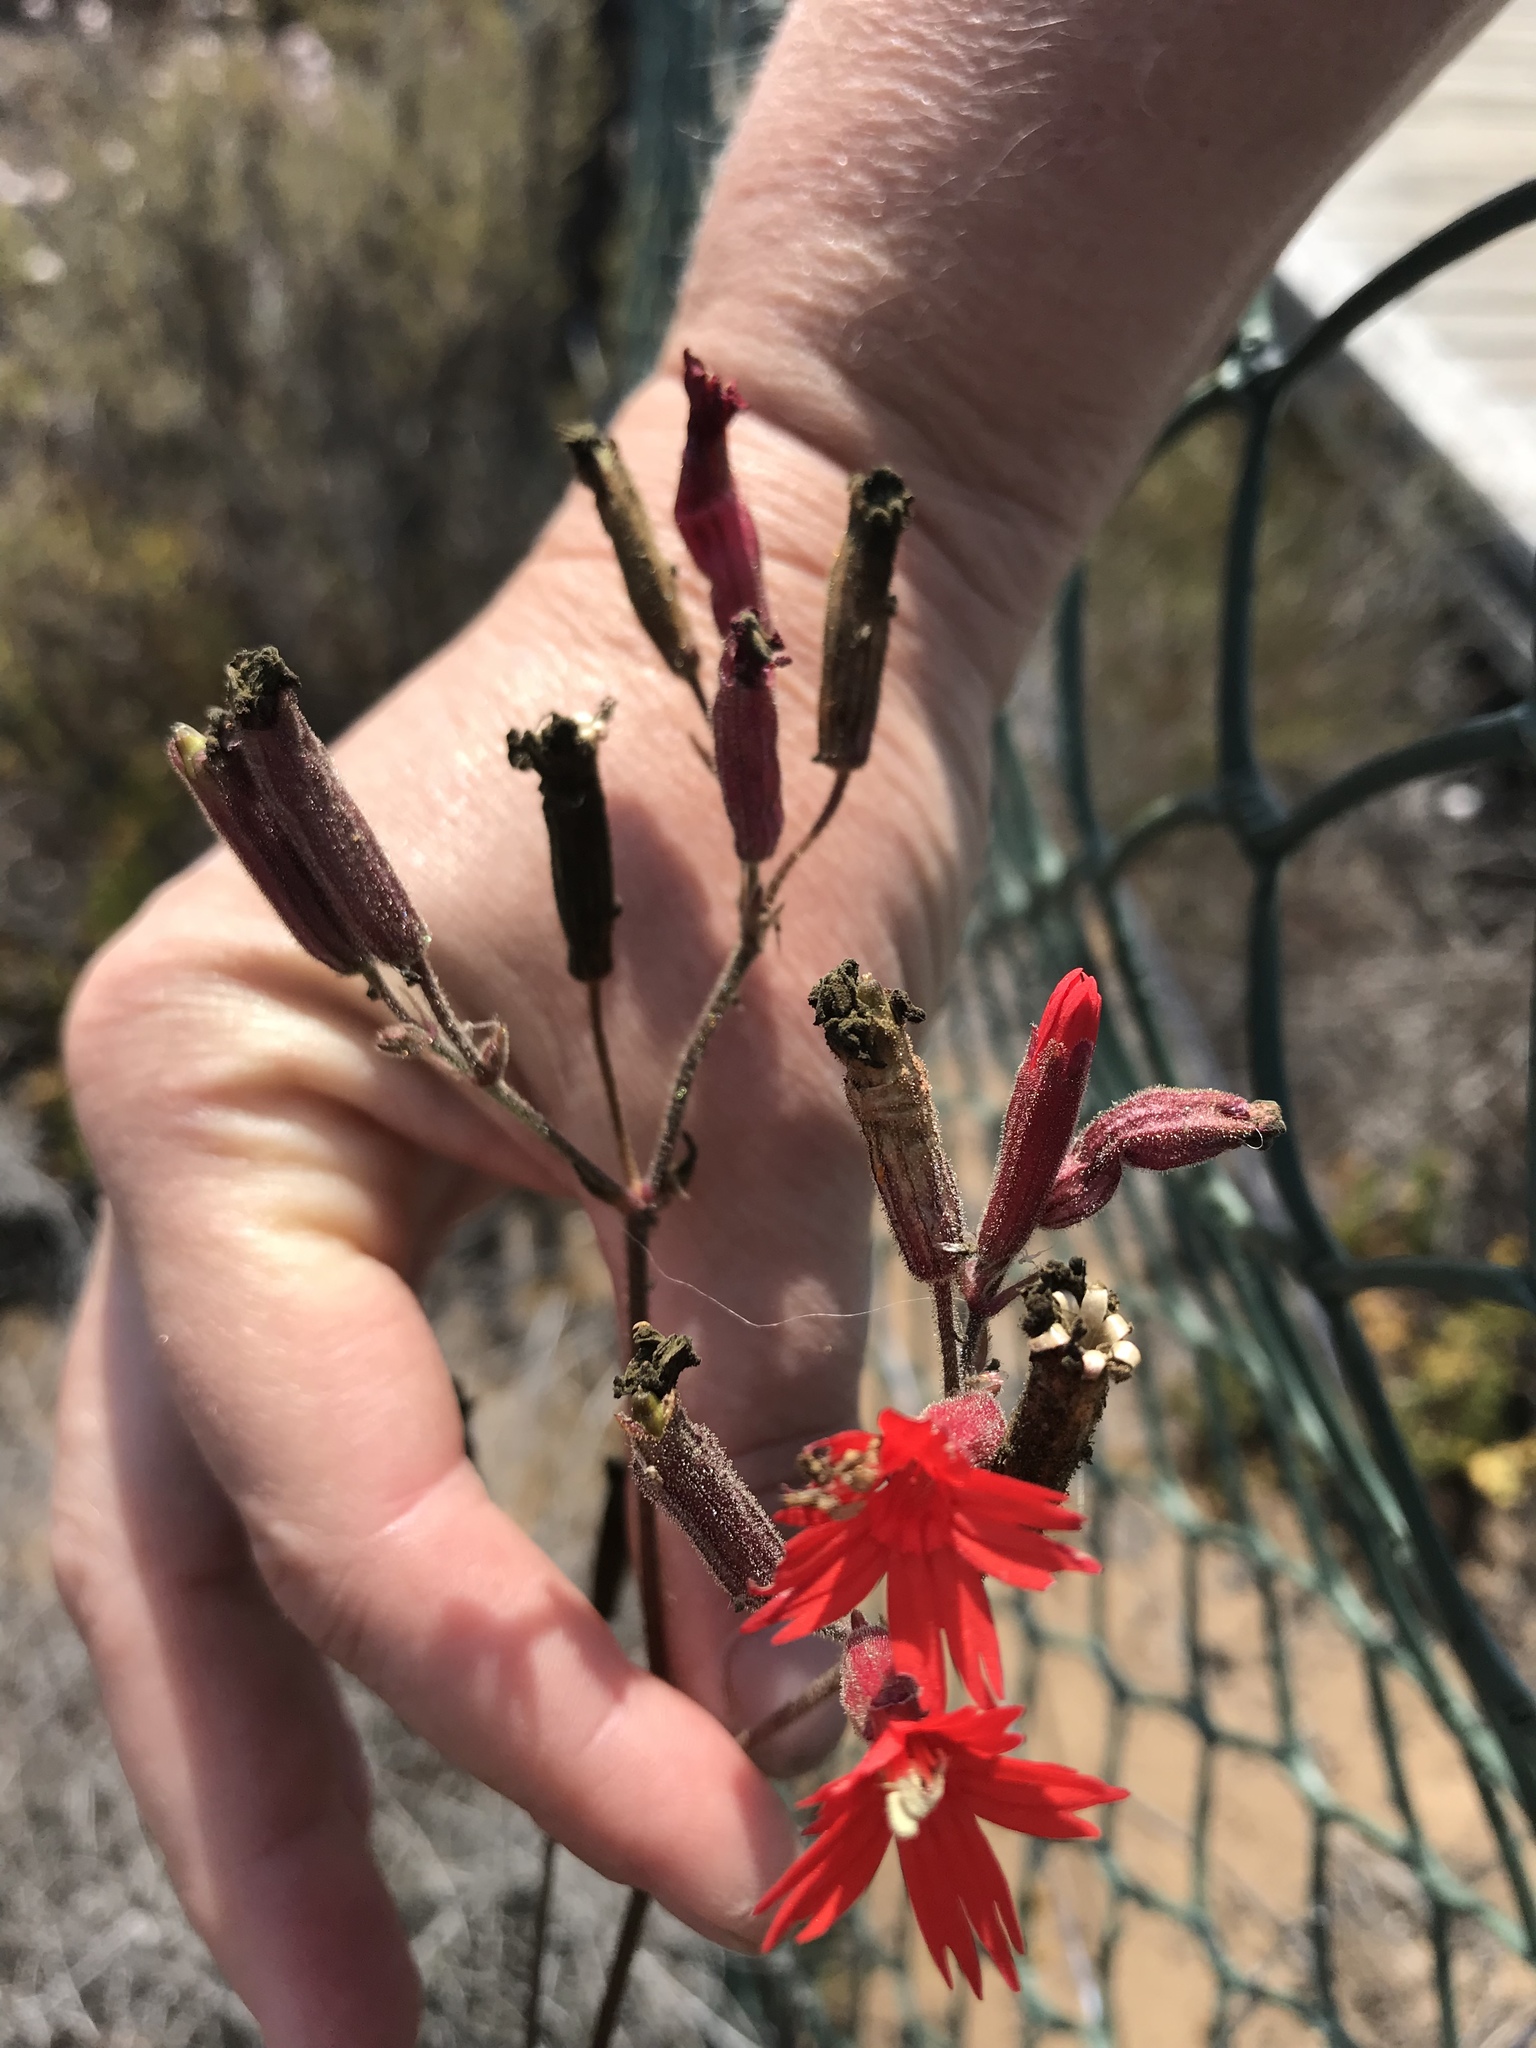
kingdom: Plantae
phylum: Tracheophyta
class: Magnoliopsida
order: Caryophyllales
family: Caryophyllaceae
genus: Silene
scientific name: Silene laciniata
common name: Indian-pink
